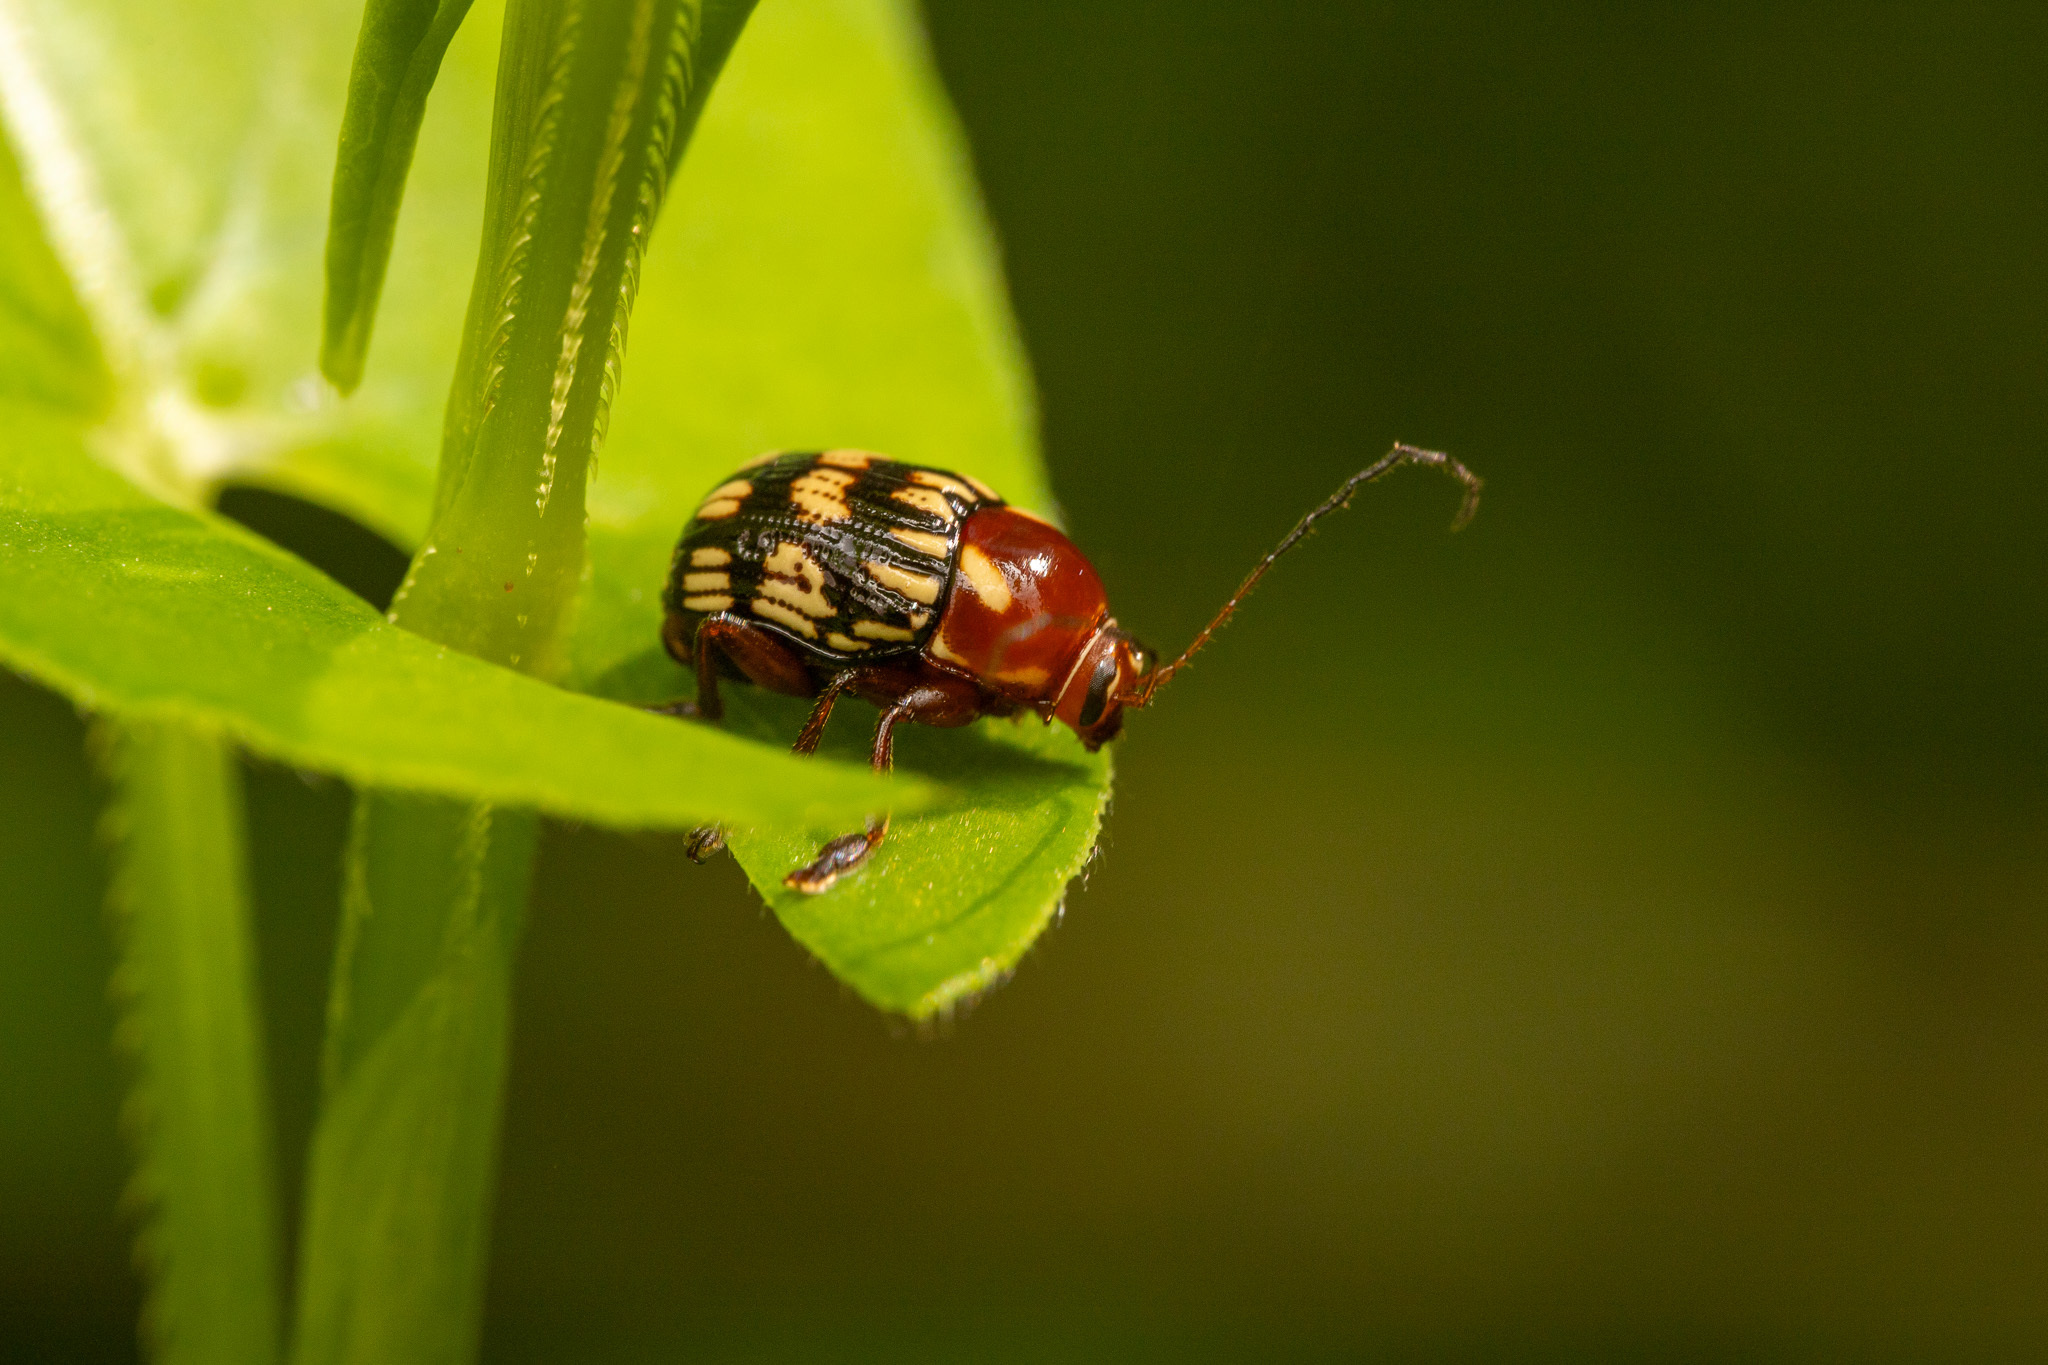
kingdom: Animalia
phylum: Arthropoda
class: Insecta
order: Coleoptera
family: Chrysomelidae
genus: Bassareus
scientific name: Bassareus brunnipes
